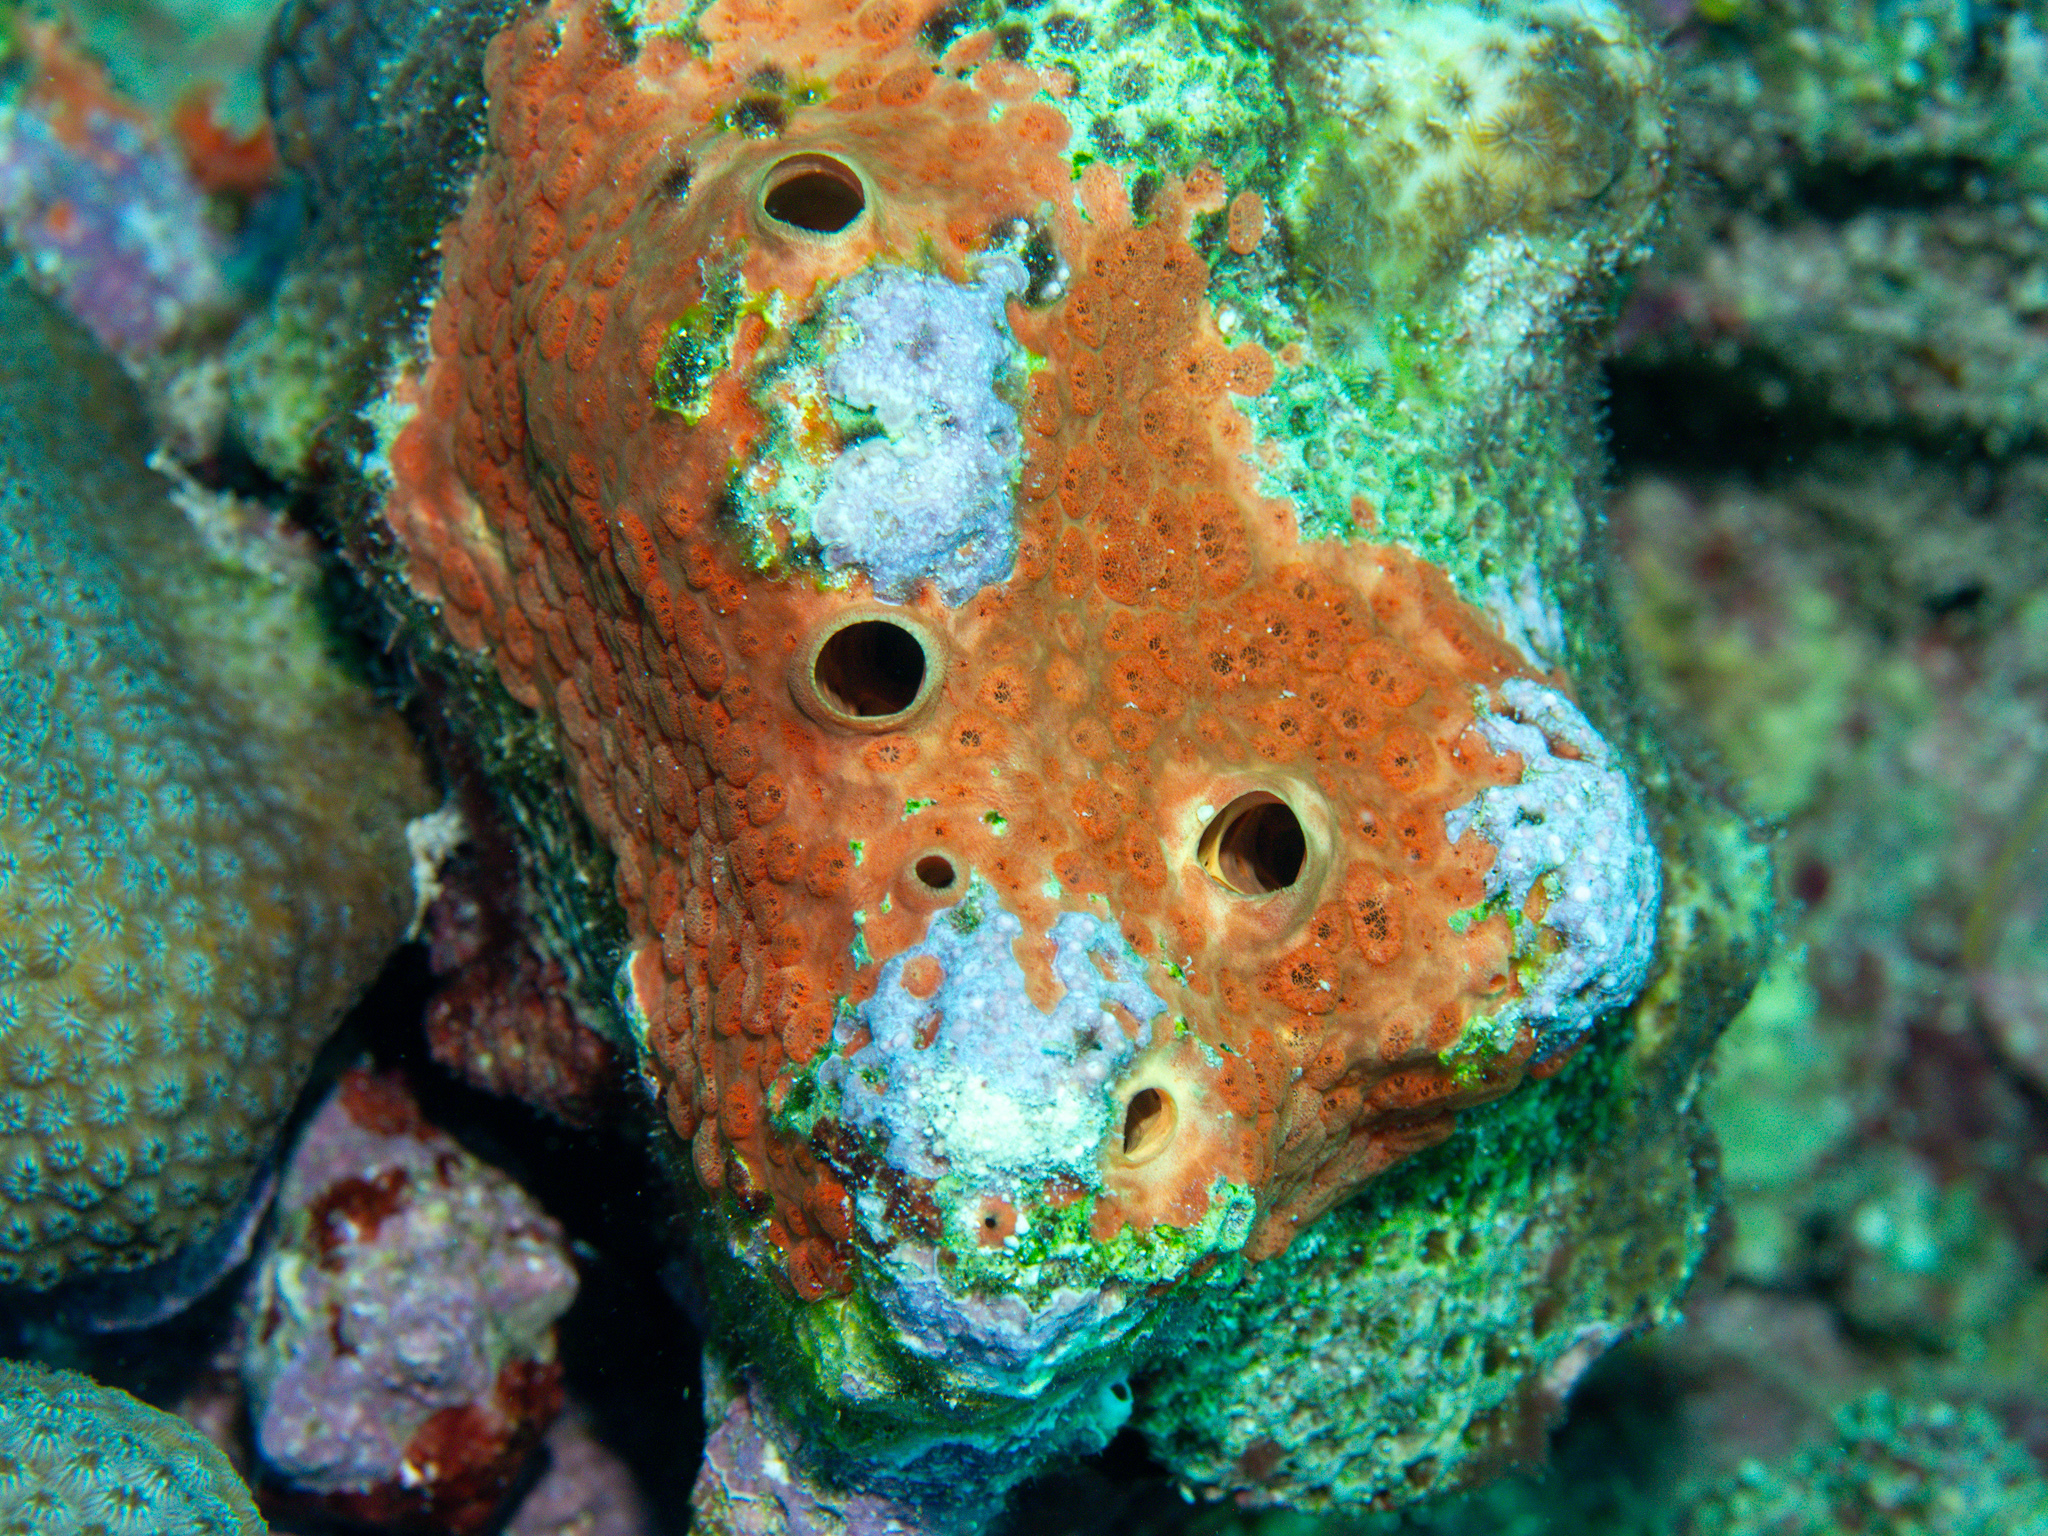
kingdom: Animalia
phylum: Porifera
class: Demospongiae
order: Clionaida
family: Clionaidae
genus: Cliothosa
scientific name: Cliothosa delitrix
